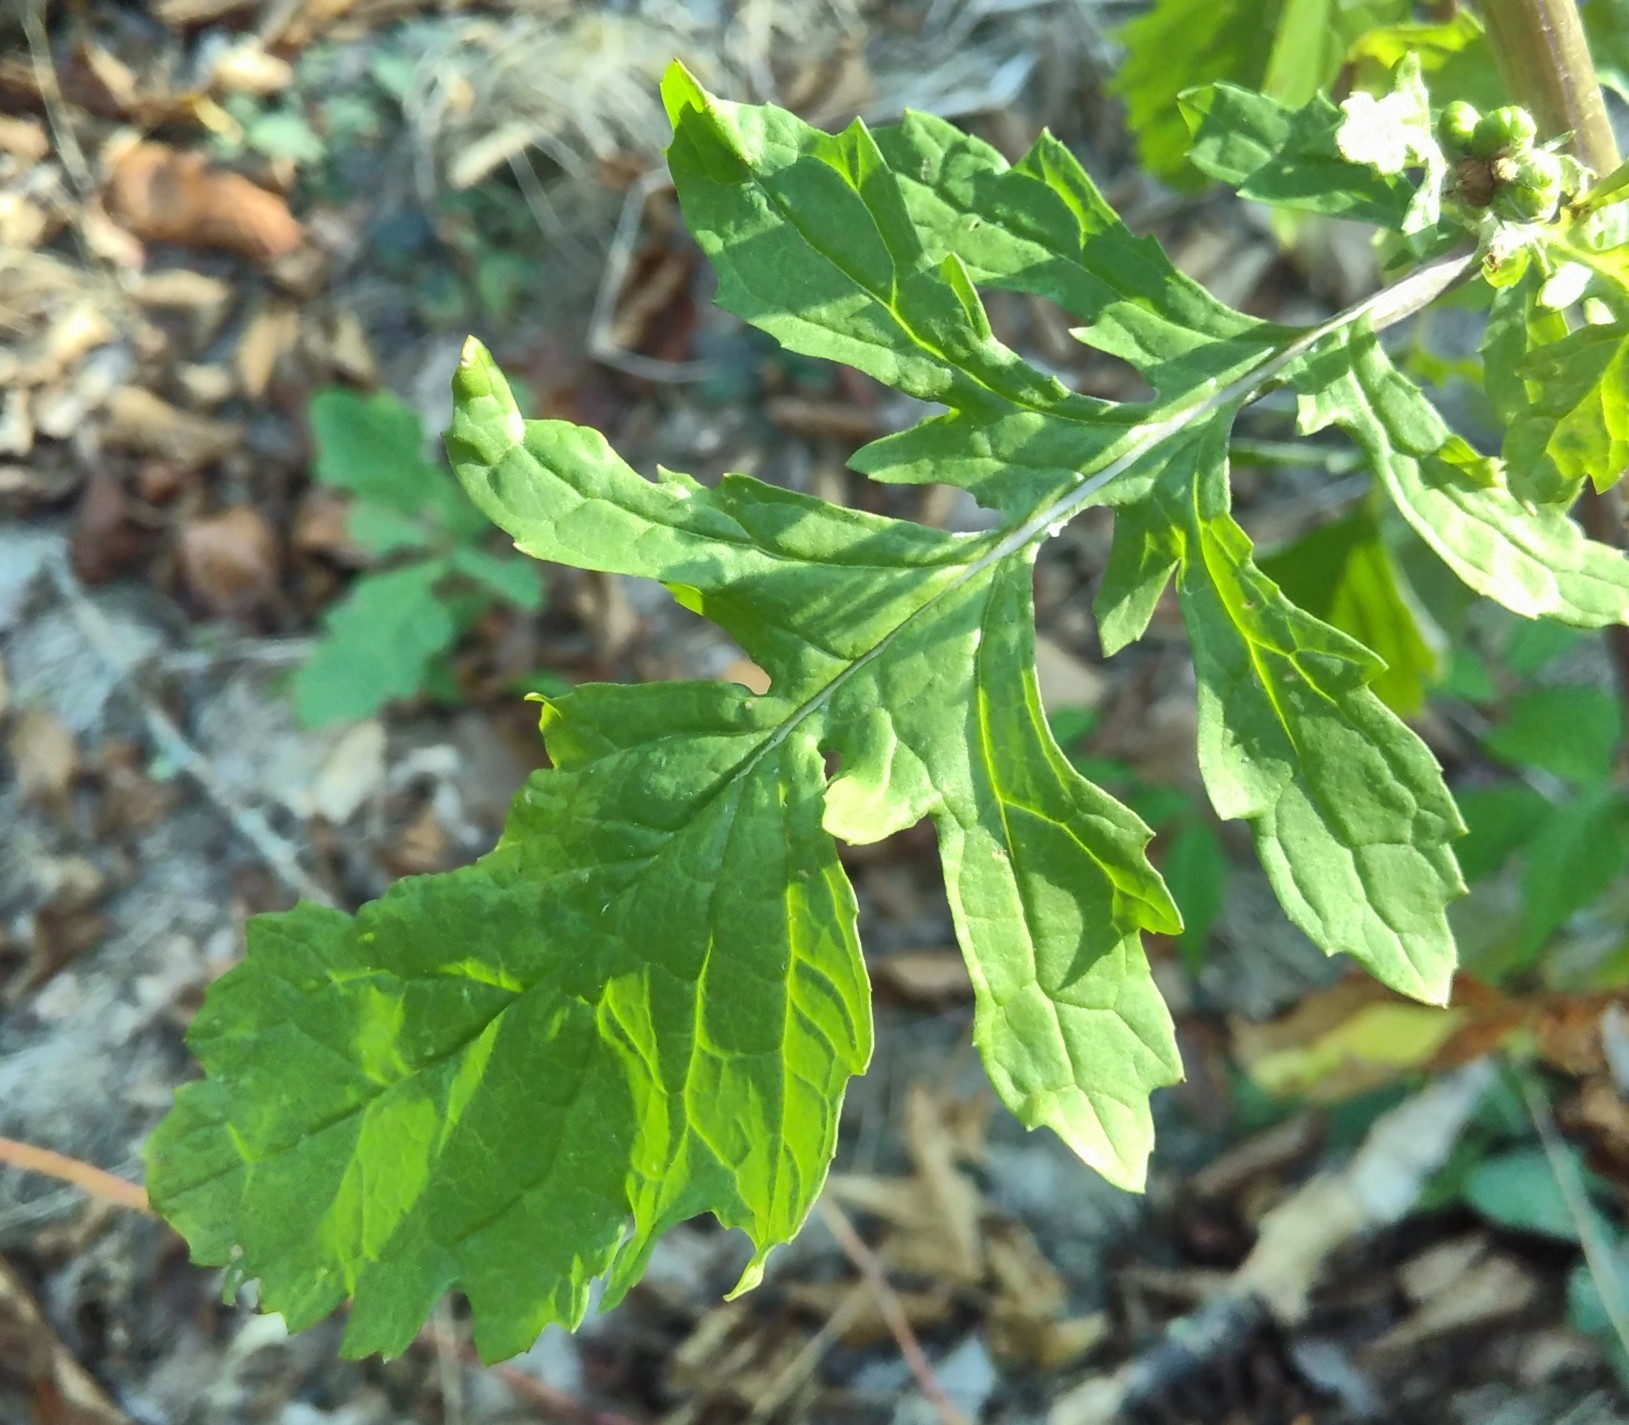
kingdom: Plantae
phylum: Tracheophyta
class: Magnoliopsida
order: Asterales
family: Asteraceae
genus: Jacobaea
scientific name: Jacobaea erratica
